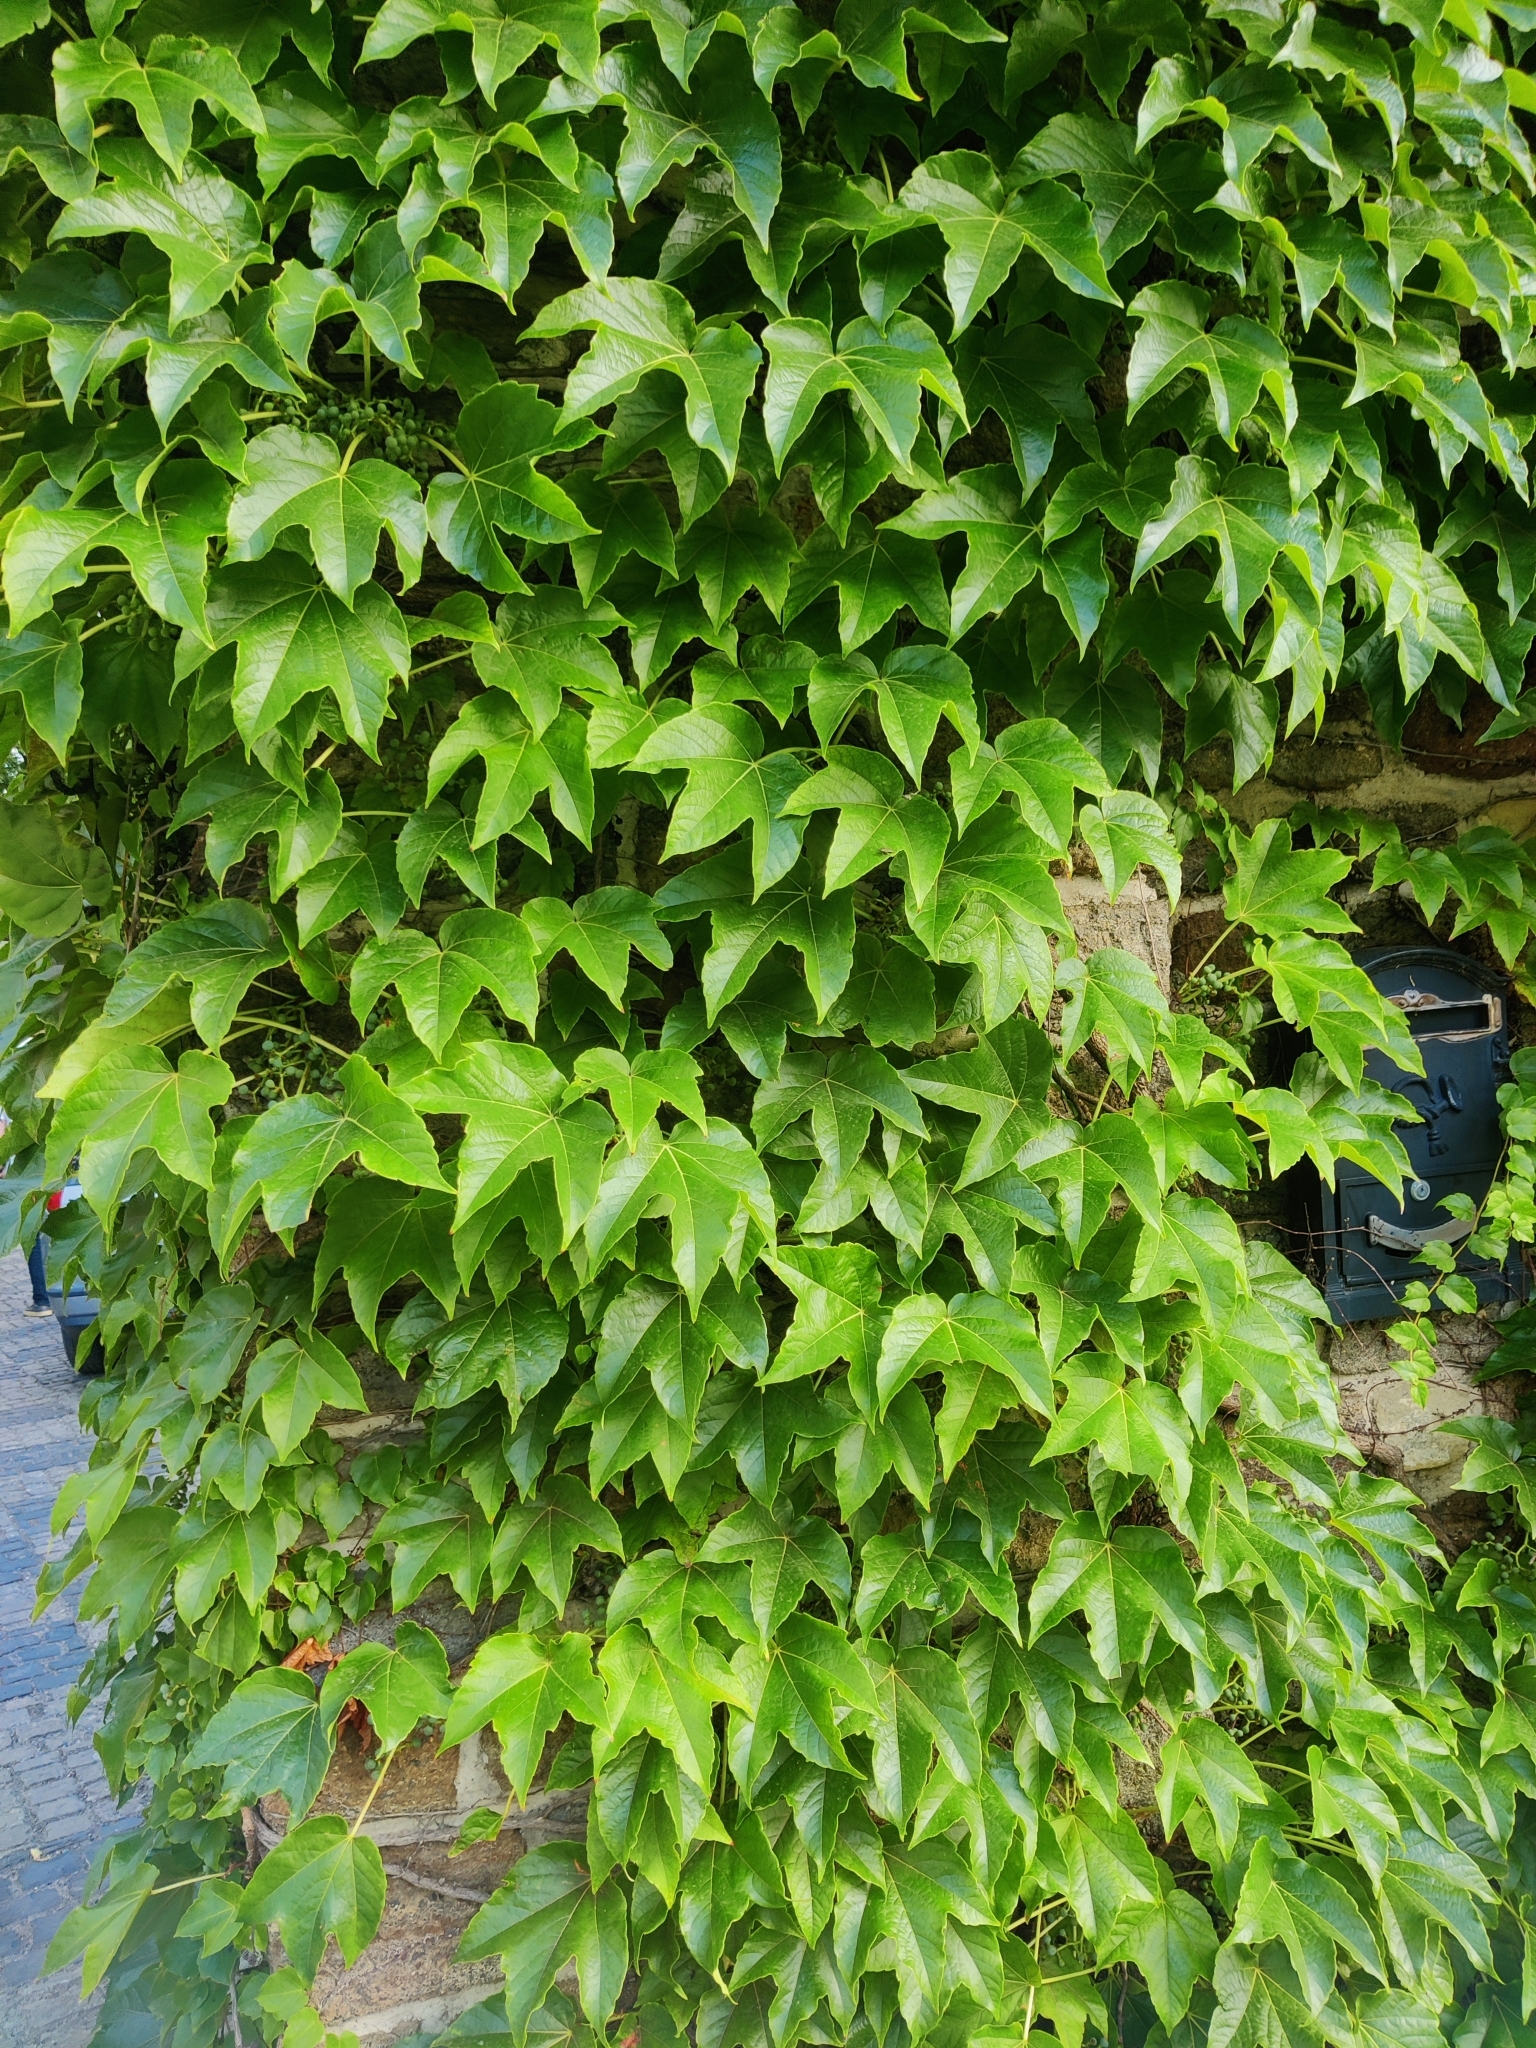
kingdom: Plantae
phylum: Tracheophyta
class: Magnoliopsida
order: Vitales
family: Vitaceae
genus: Parthenocissus
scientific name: Parthenocissus tricuspidata
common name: Boston ivy
